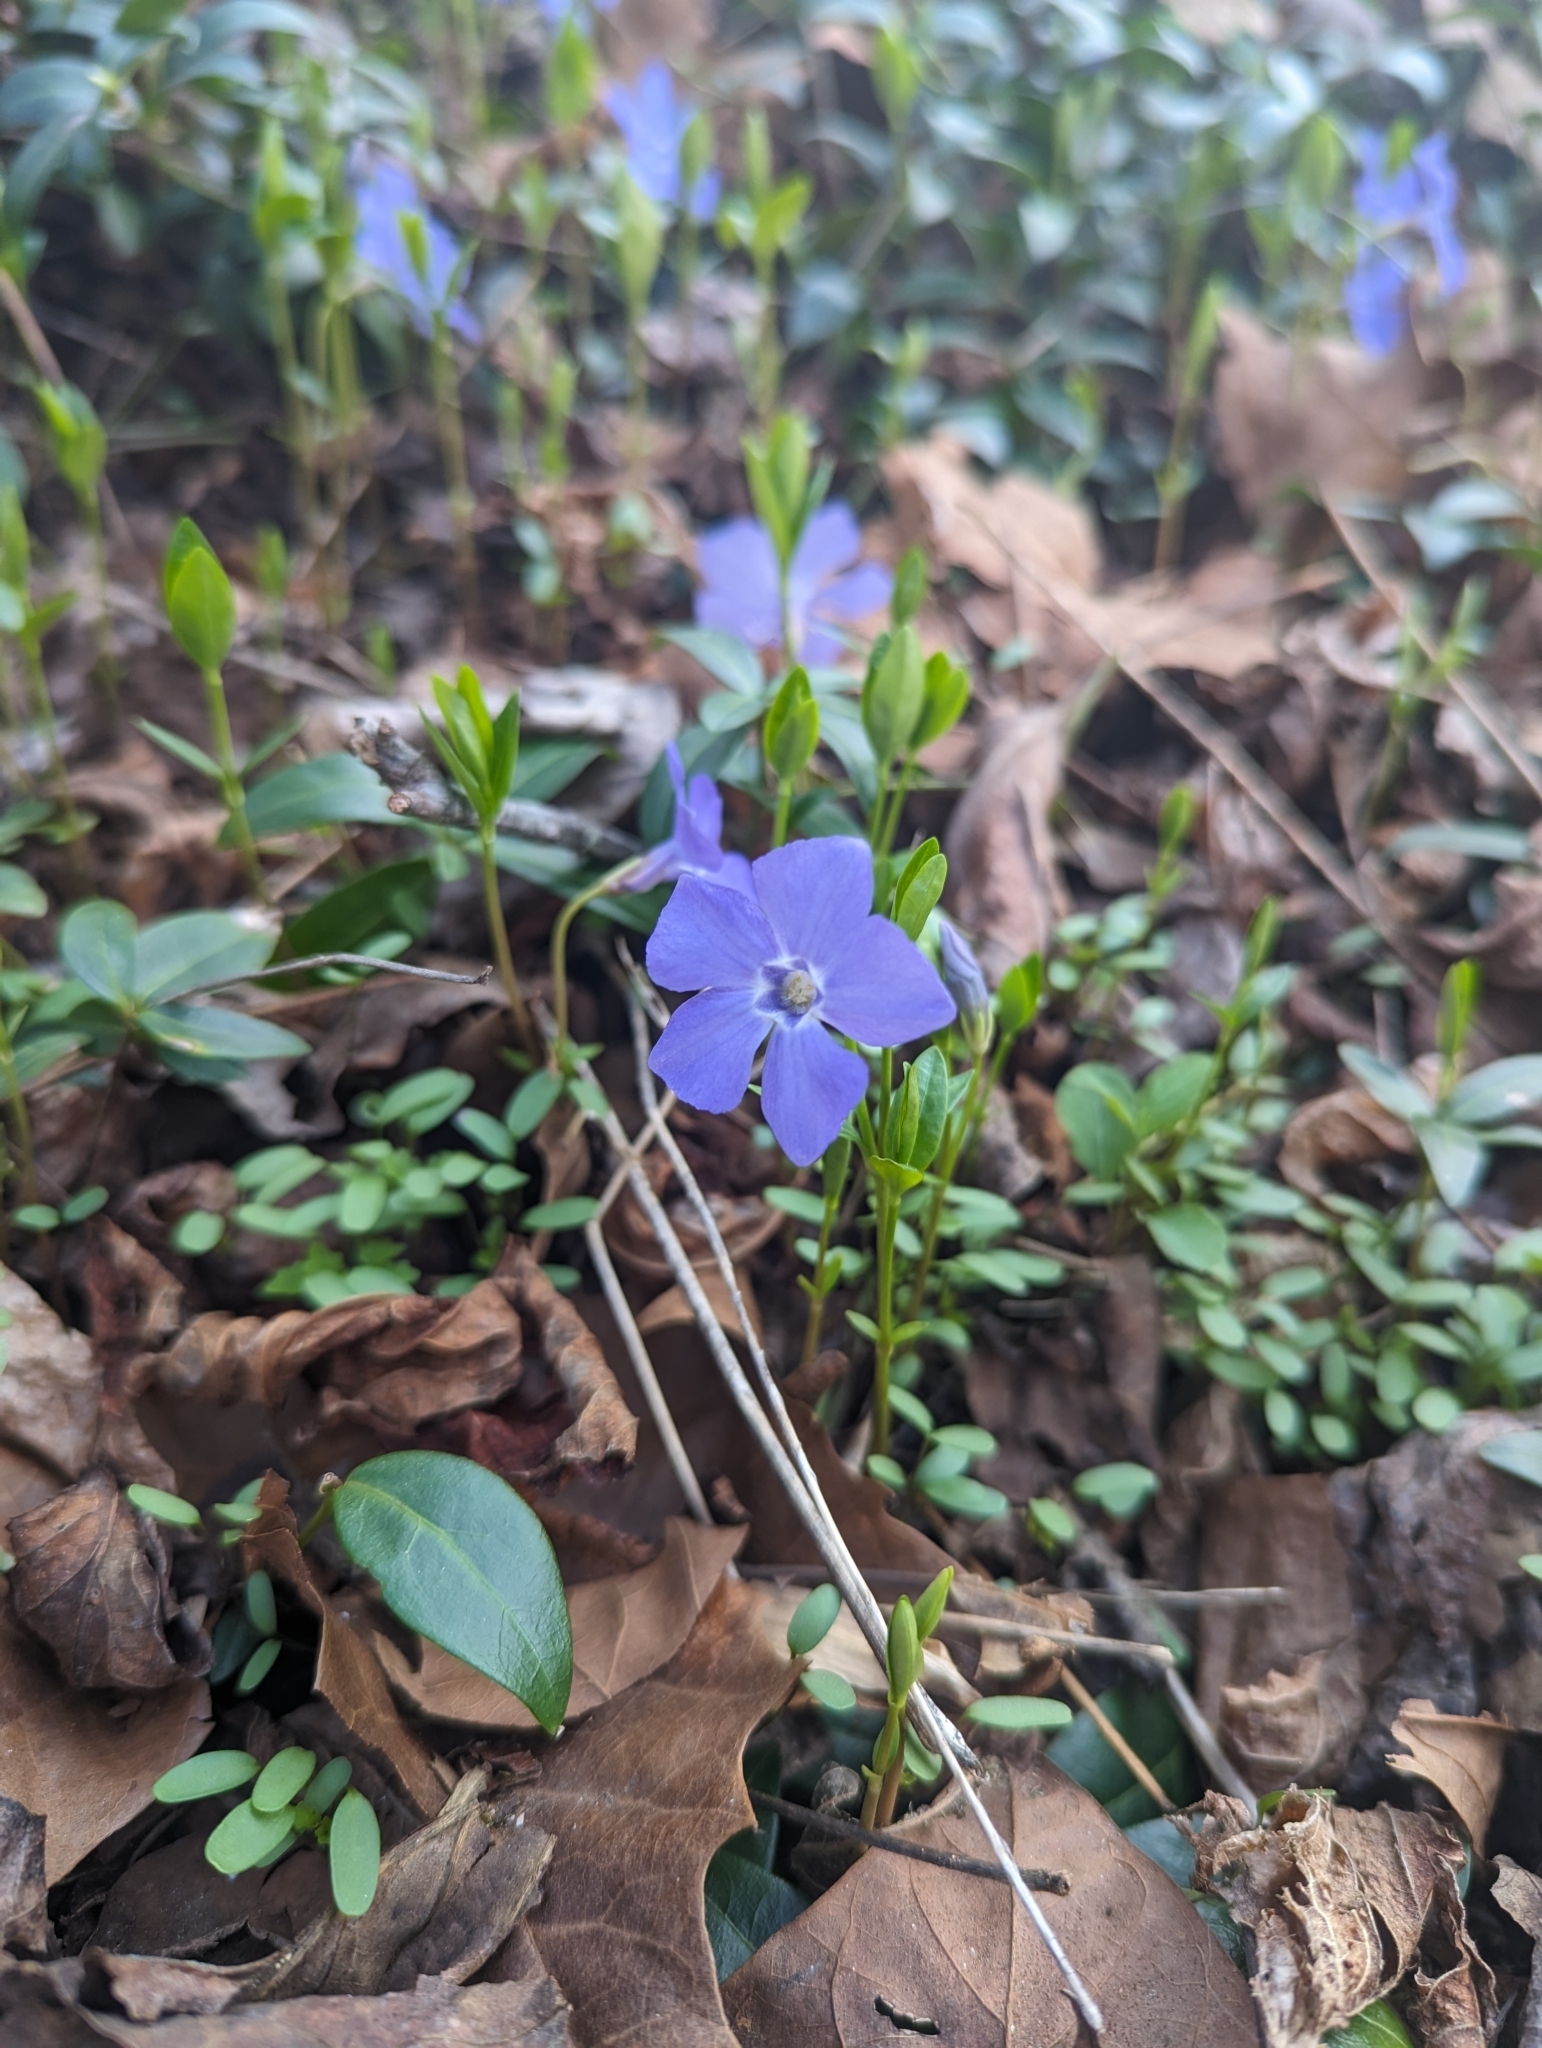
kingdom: Plantae
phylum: Tracheophyta
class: Magnoliopsida
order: Gentianales
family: Apocynaceae
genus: Vinca
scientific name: Vinca minor
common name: Lesser periwinkle
